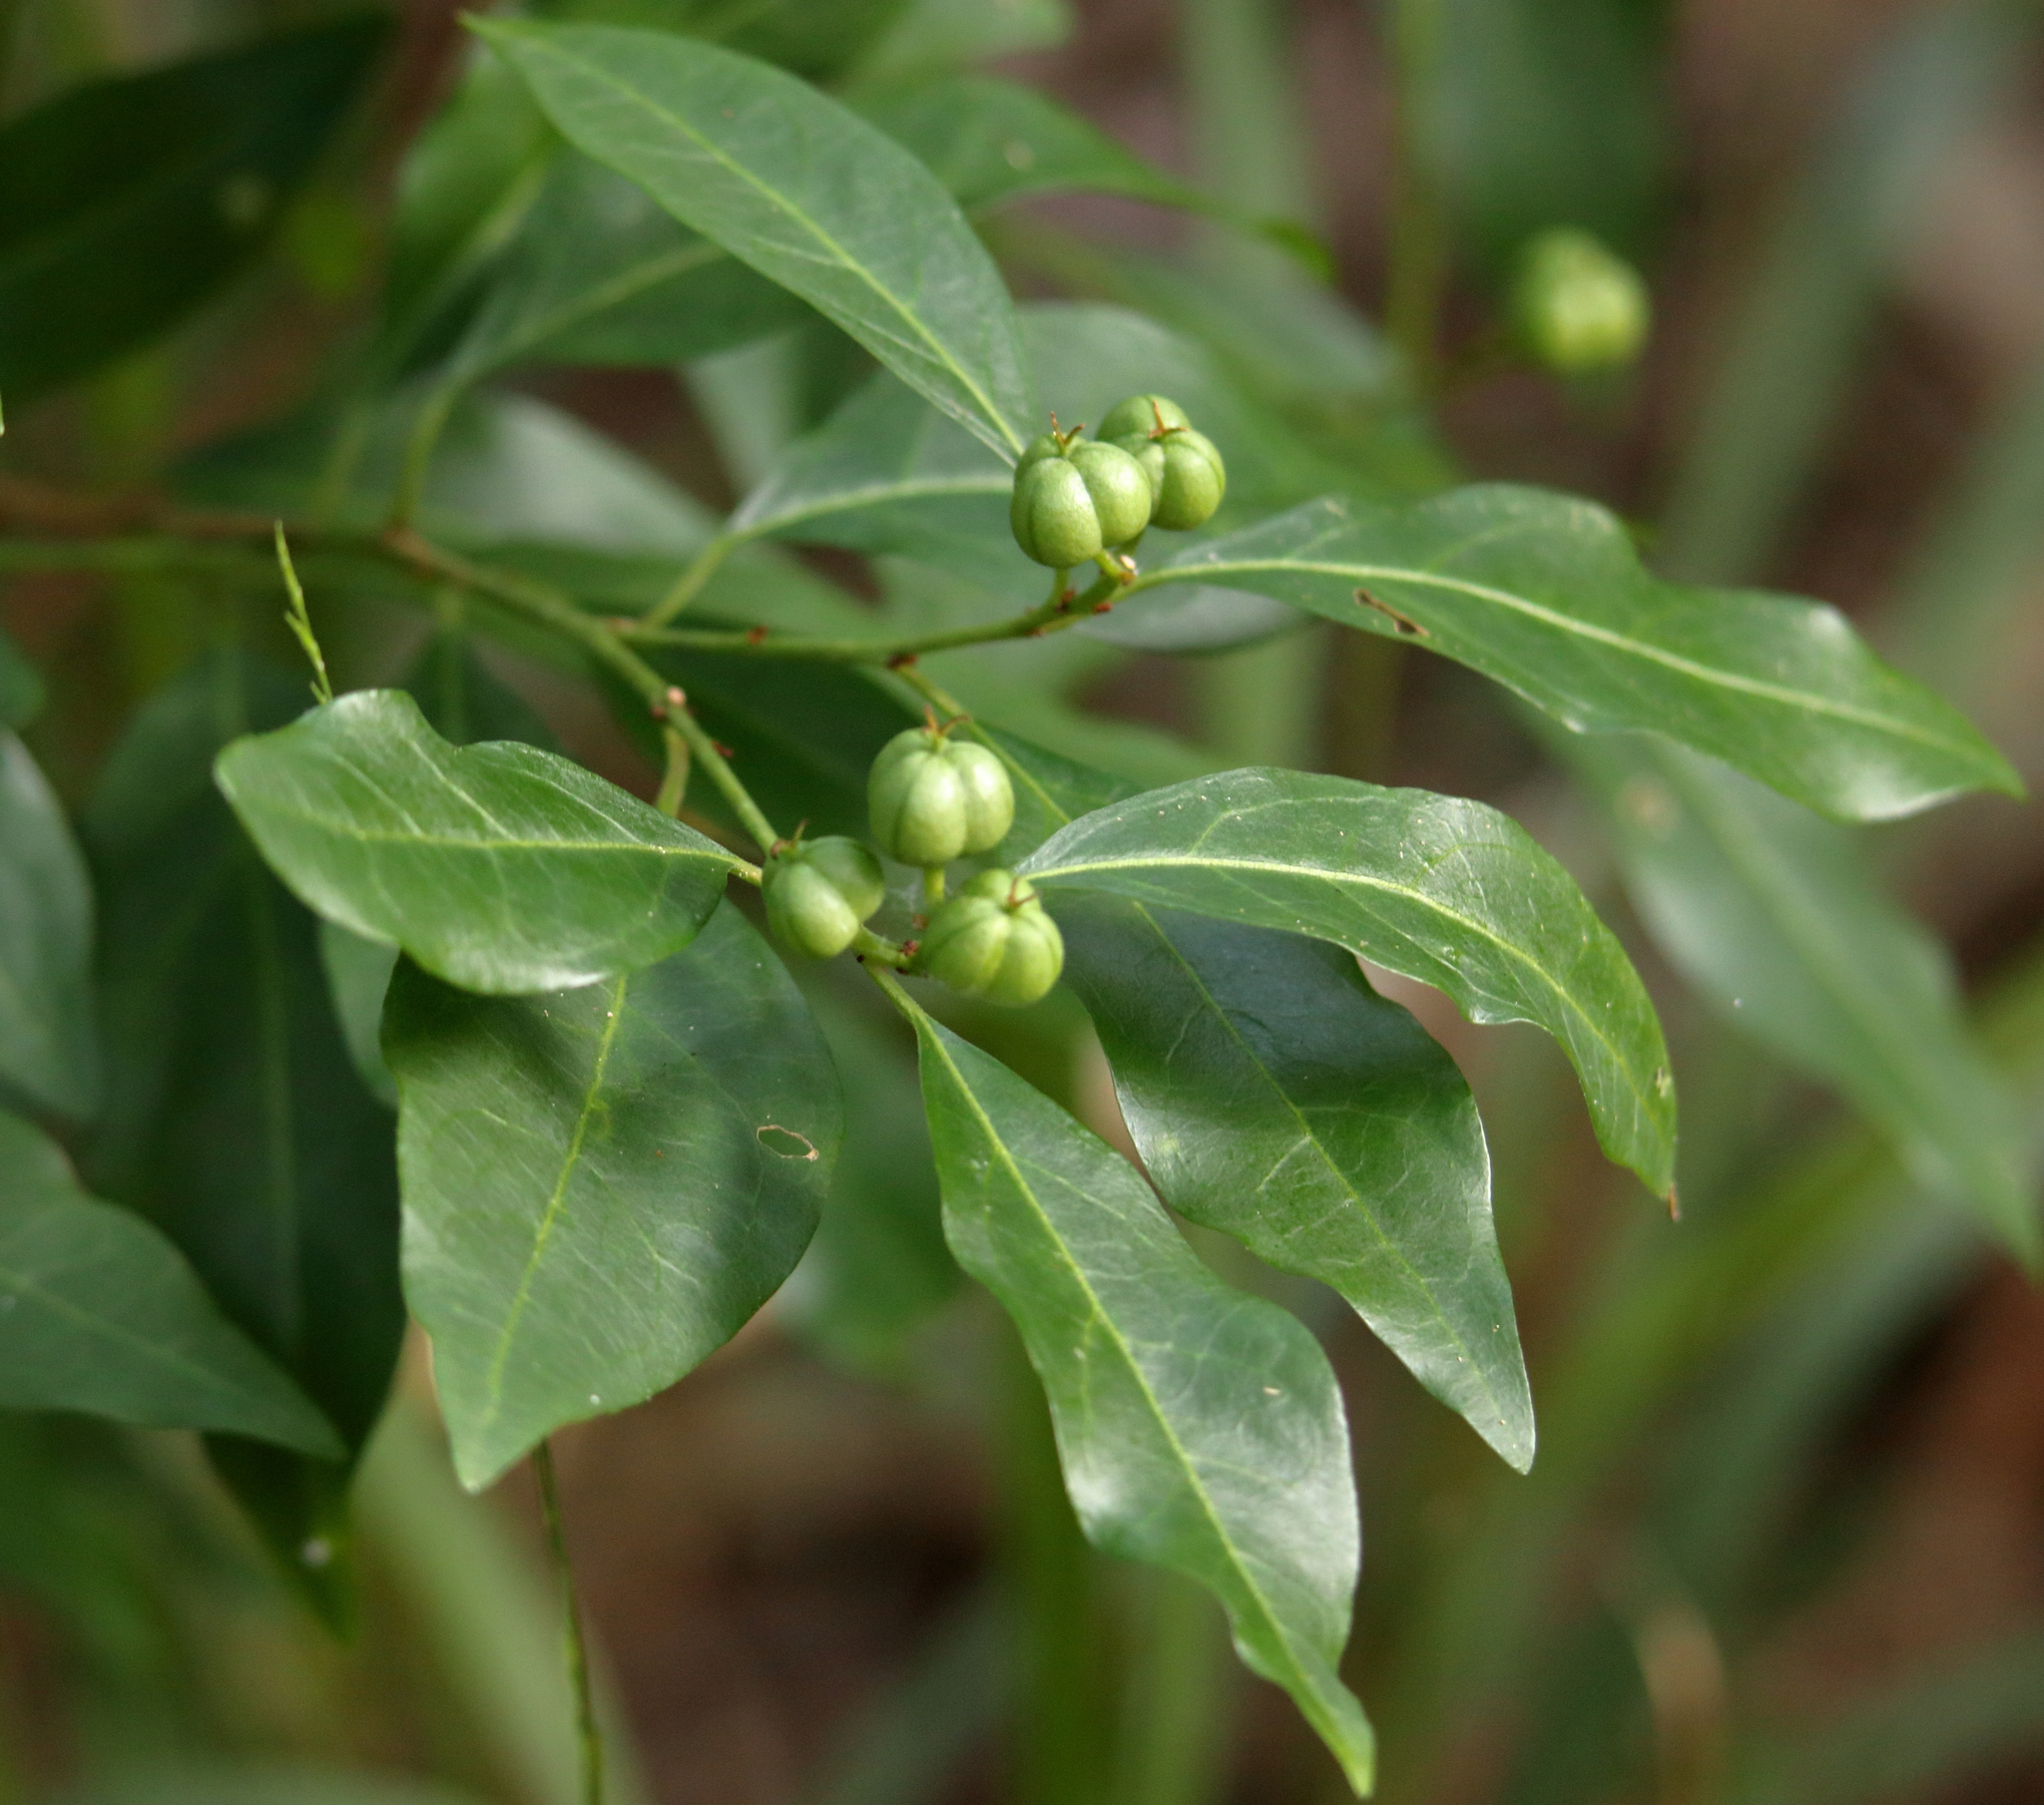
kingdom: Plantae
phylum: Tracheophyta
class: Magnoliopsida
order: Malpighiales
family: Euphorbiaceae
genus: Ditrysinia
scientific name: Ditrysinia fruticosa
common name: Gulf sebastian-bush
